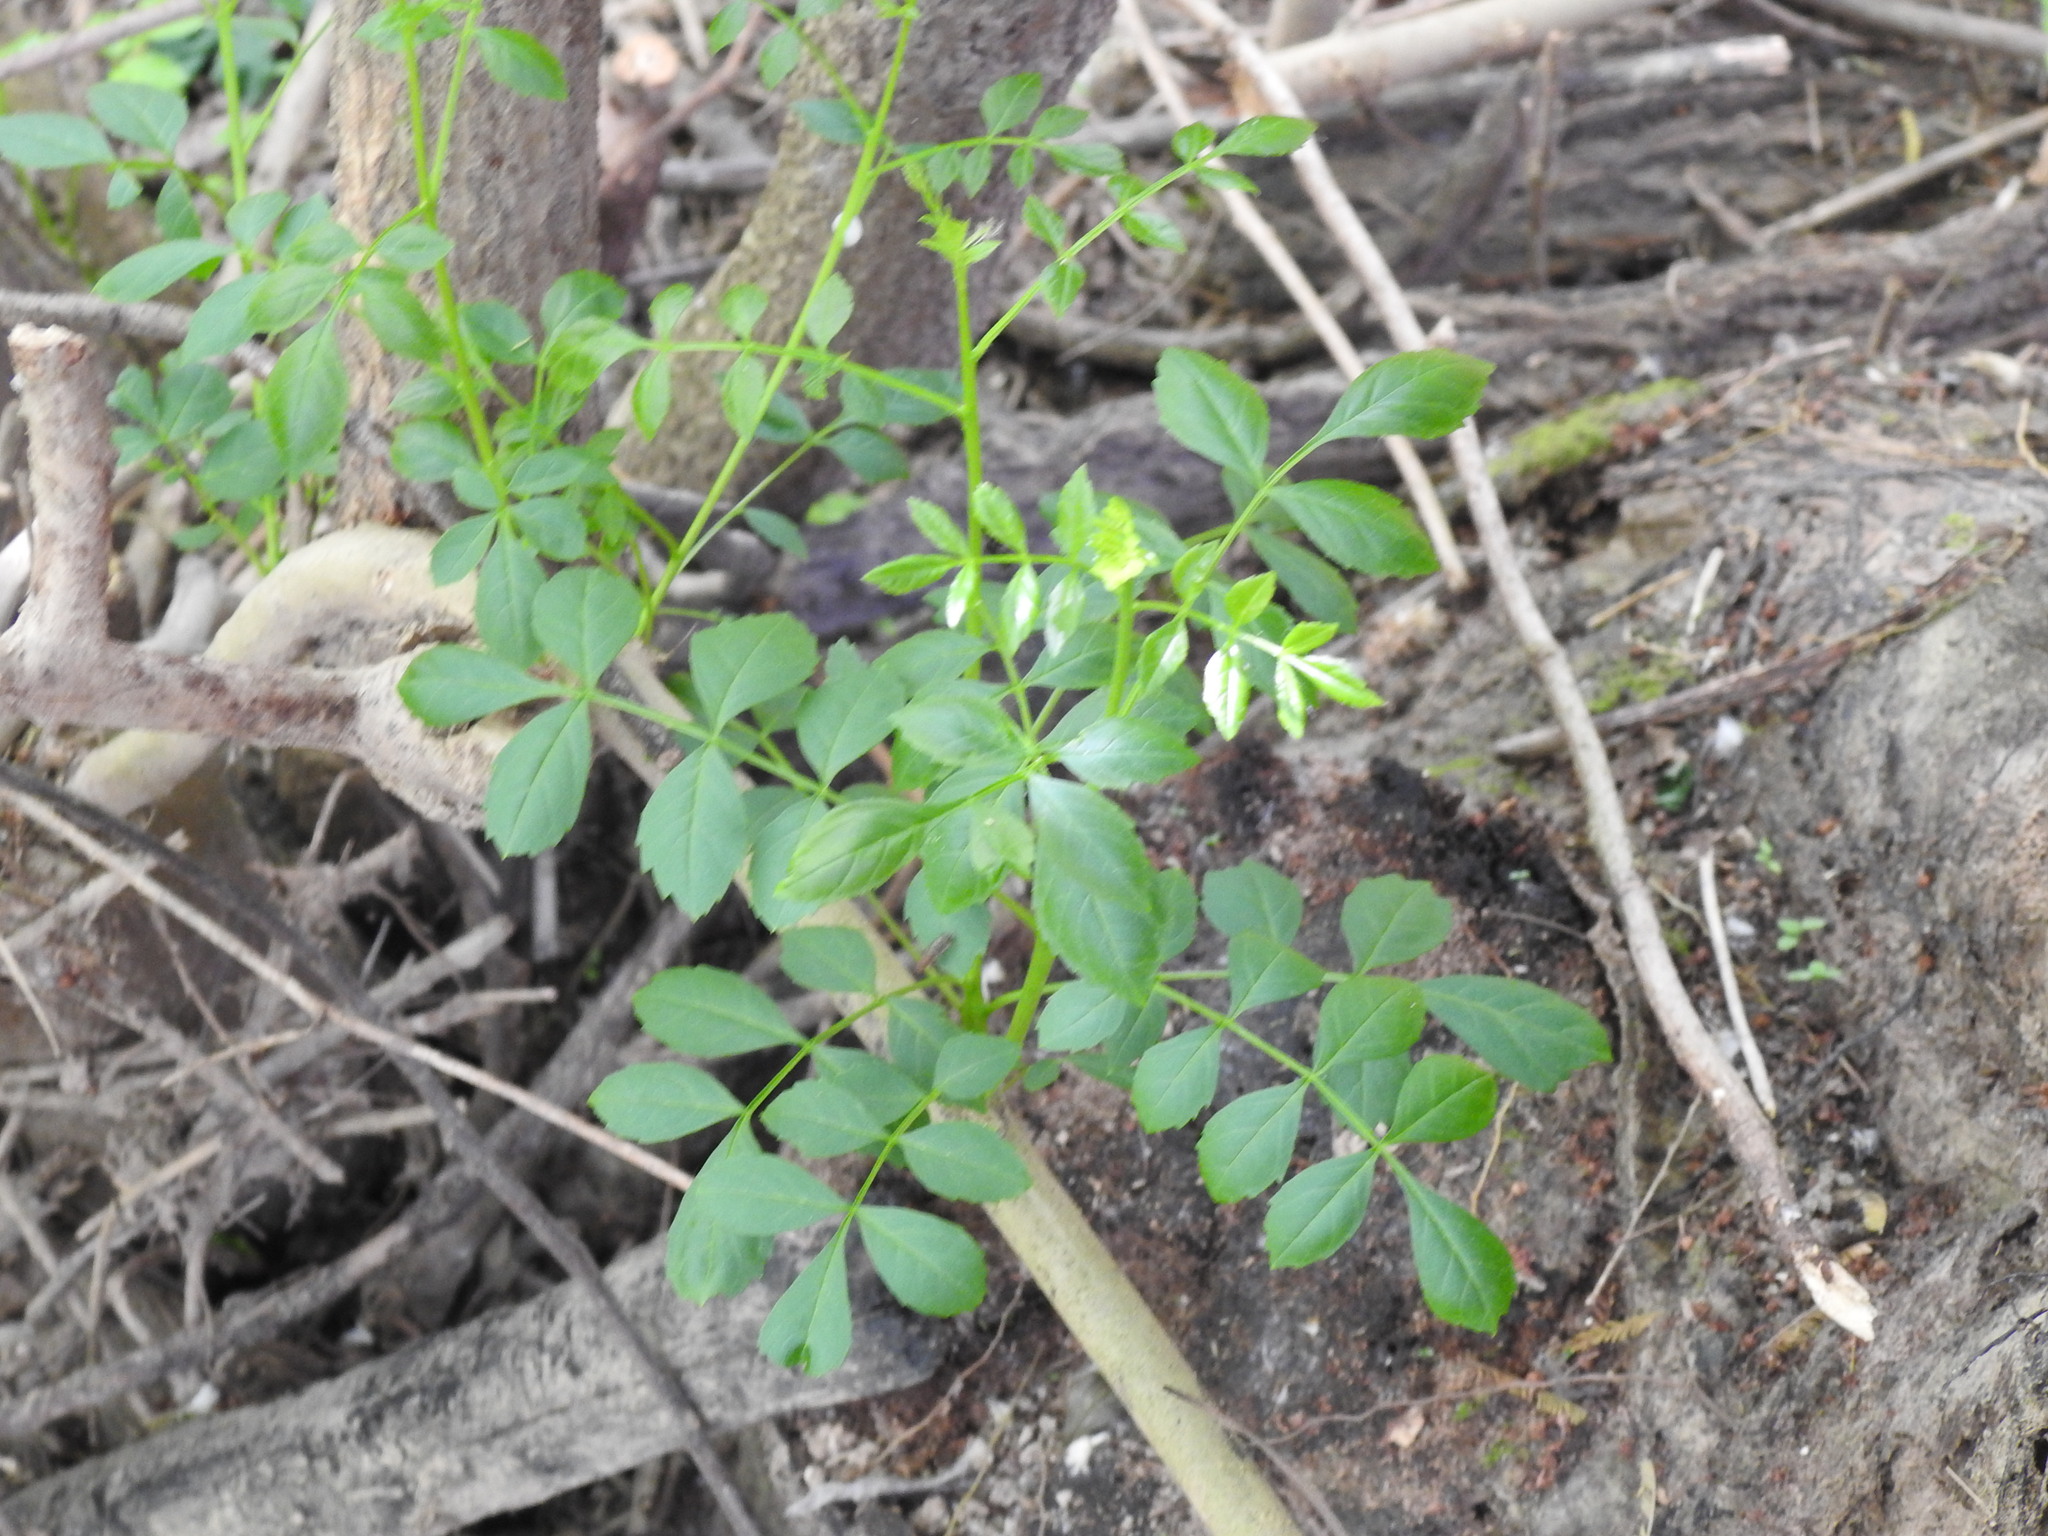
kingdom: Plantae
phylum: Tracheophyta
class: Magnoliopsida
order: Lamiales
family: Oleaceae
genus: Fraxinus
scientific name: Fraxinus angustifolia
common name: Narrow-leafed ash
